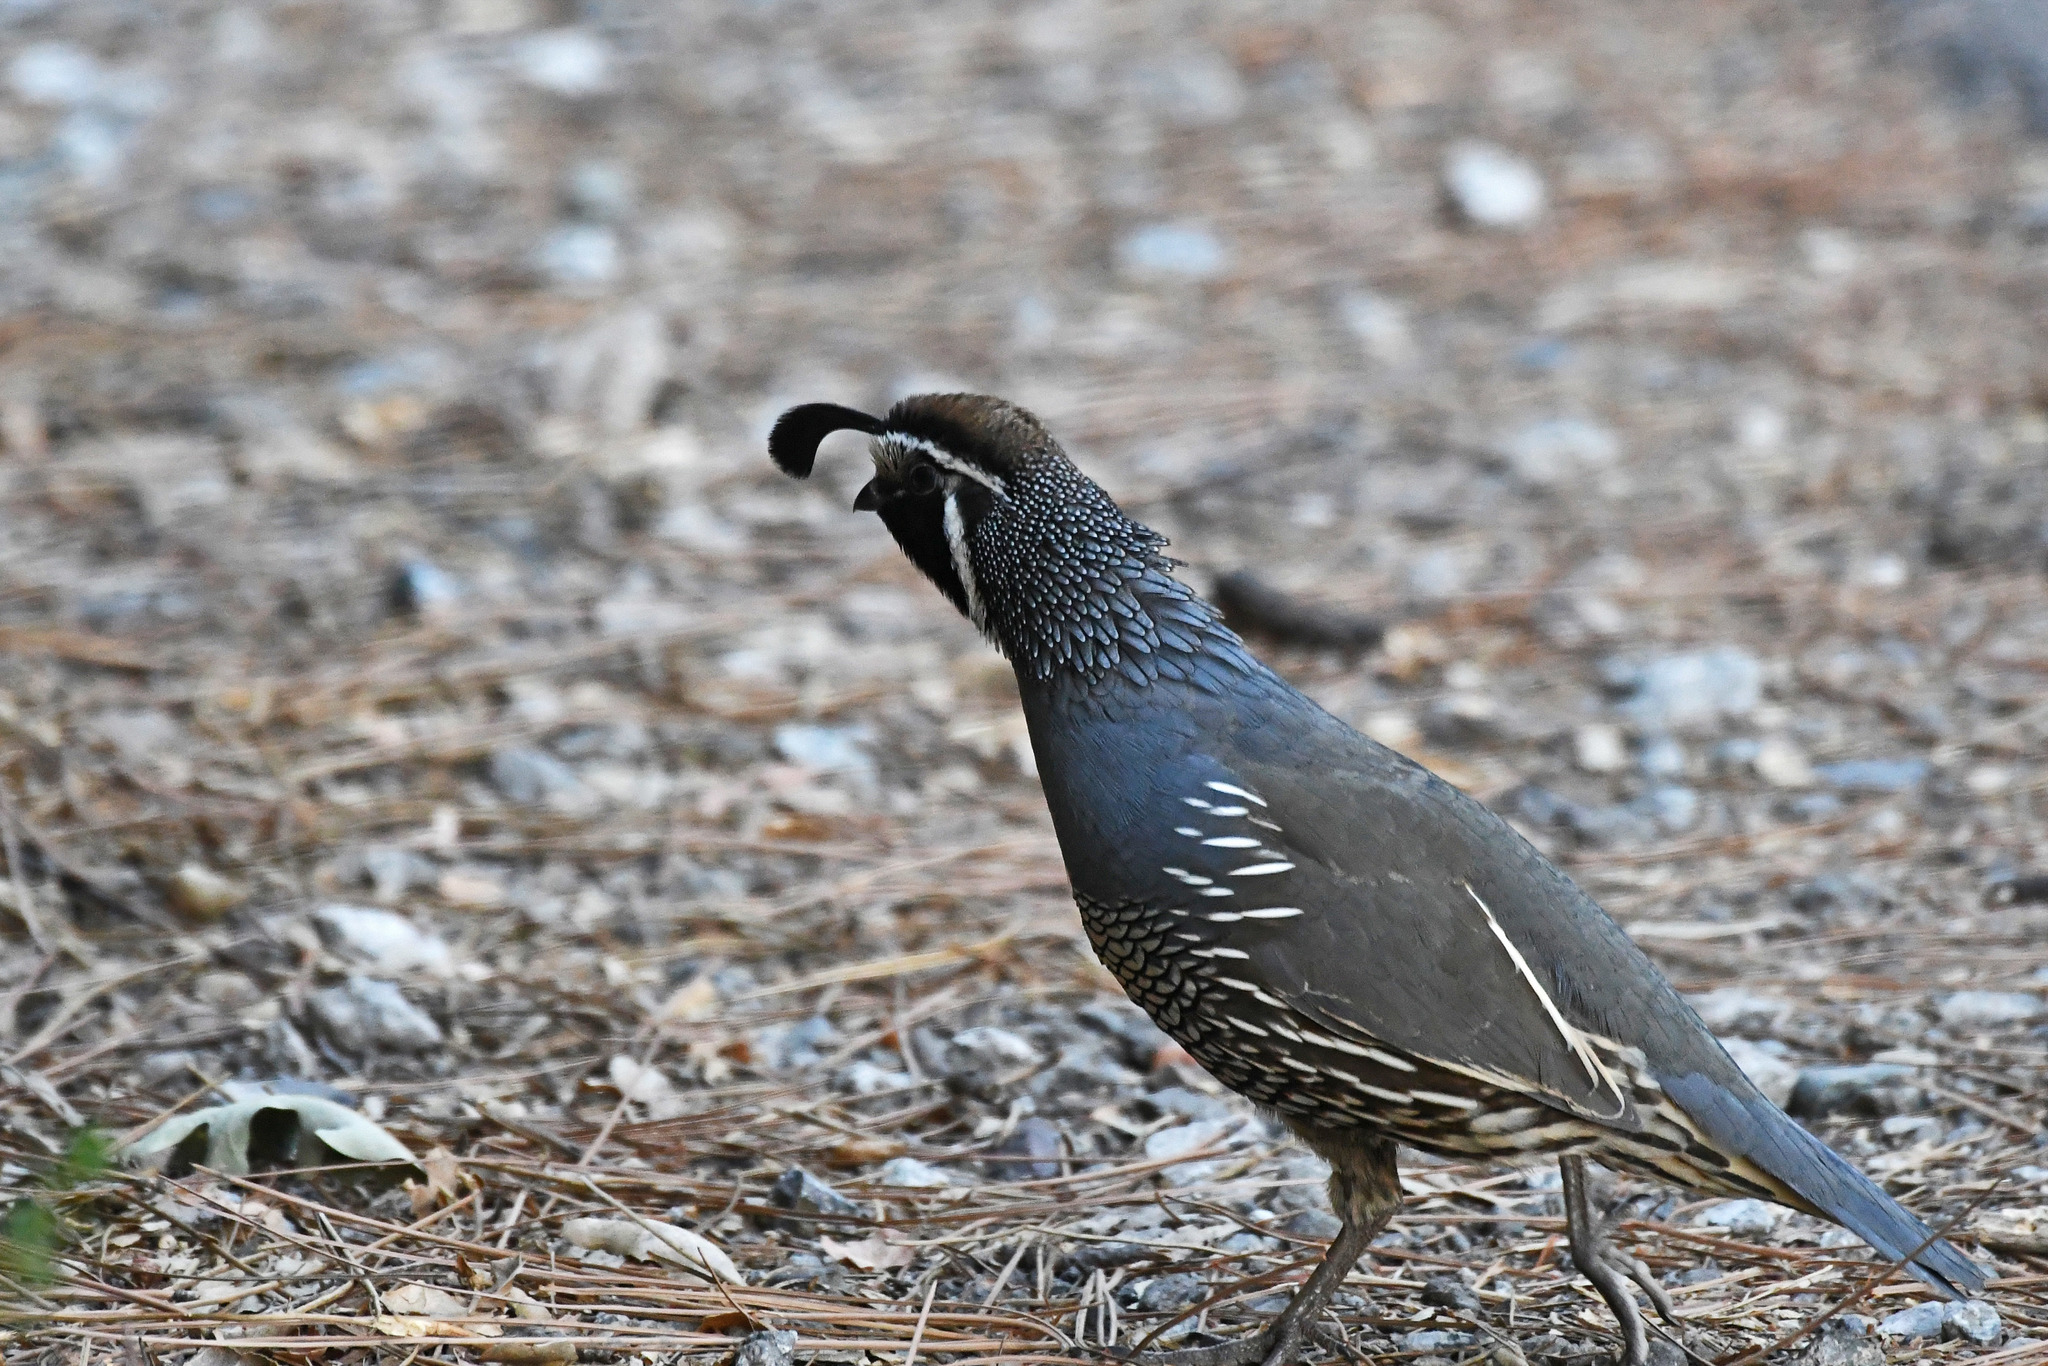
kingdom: Animalia
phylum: Chordata
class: Aves
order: Galliformes
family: Odontophoridae
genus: Callipepla
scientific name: Callipepla californica
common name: California quail
